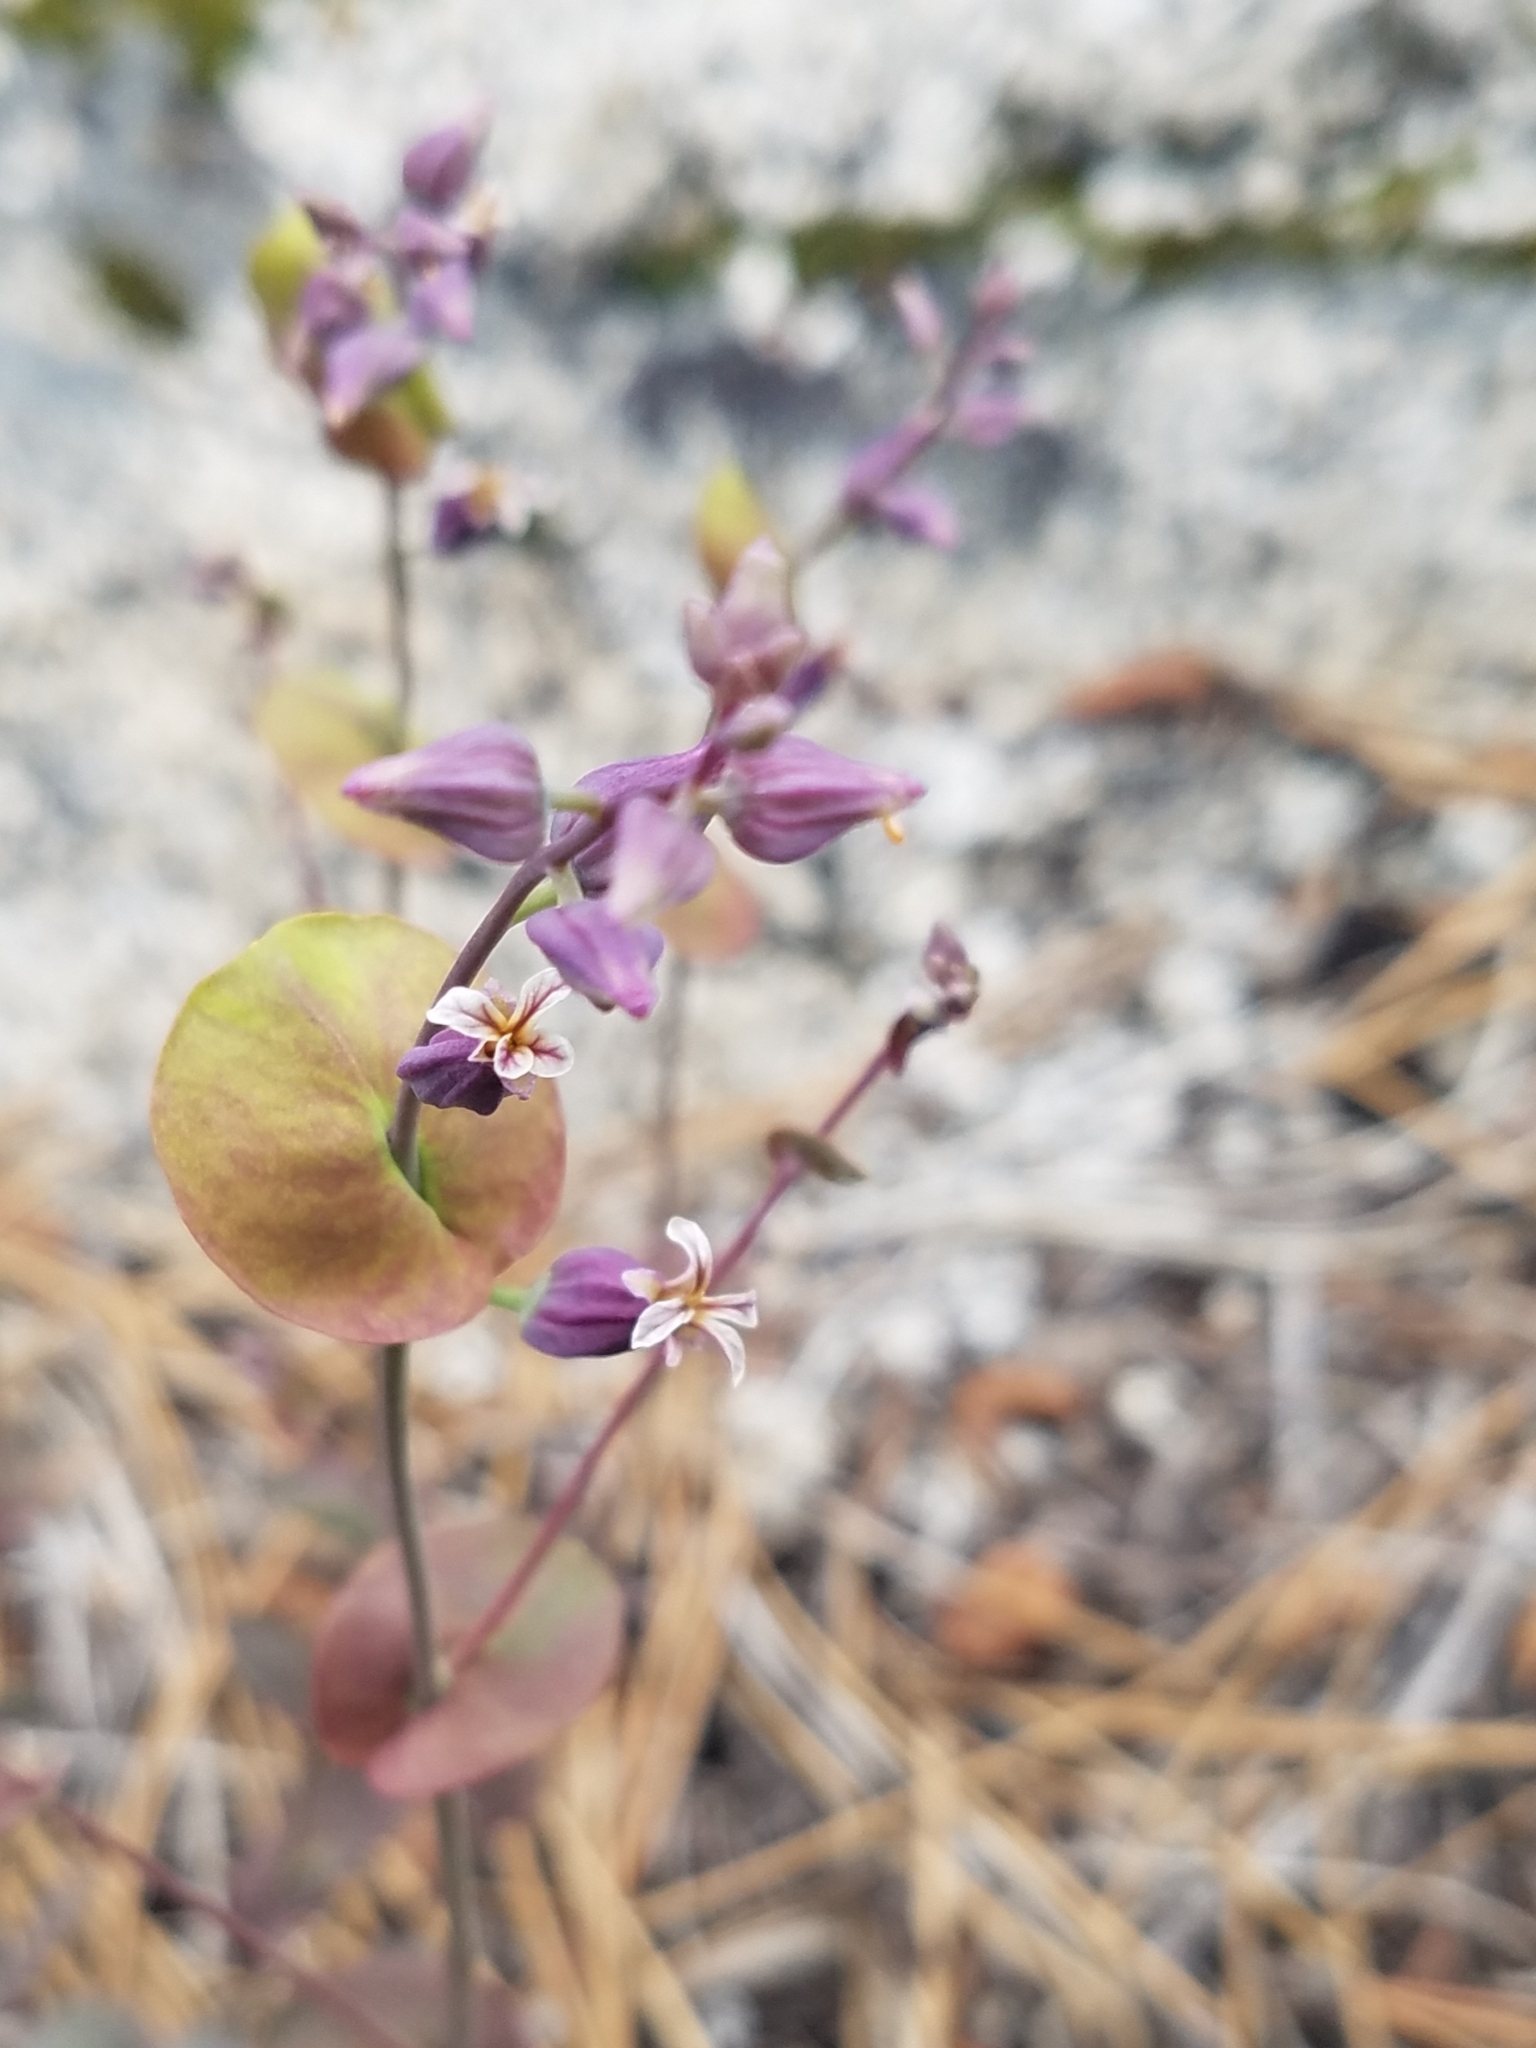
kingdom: Plantae
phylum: Tracheophyta
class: Magnoliopsida
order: Brassicales
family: Brassicaceae
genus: Streptanthus
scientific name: Streptanthus tortuosus
